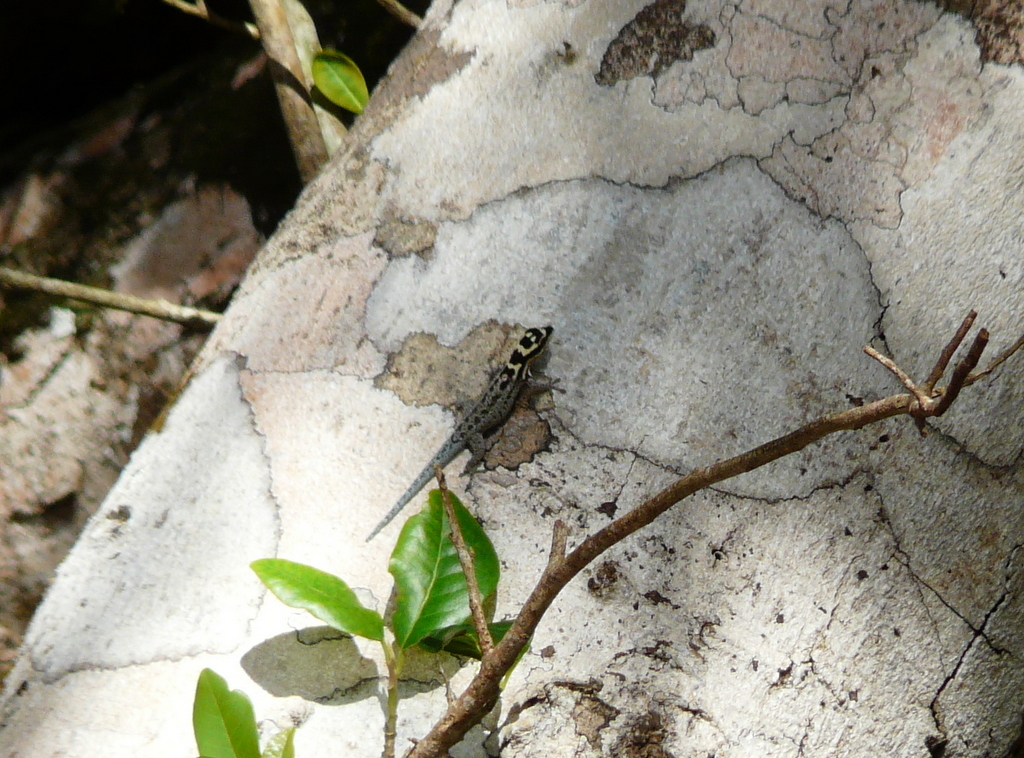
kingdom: Animalia
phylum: Chordata
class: Squamata
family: Gekkonidae
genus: Lygodactylus
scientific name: Lygodactylus mombasicus
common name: White-headed dwarf gecko
